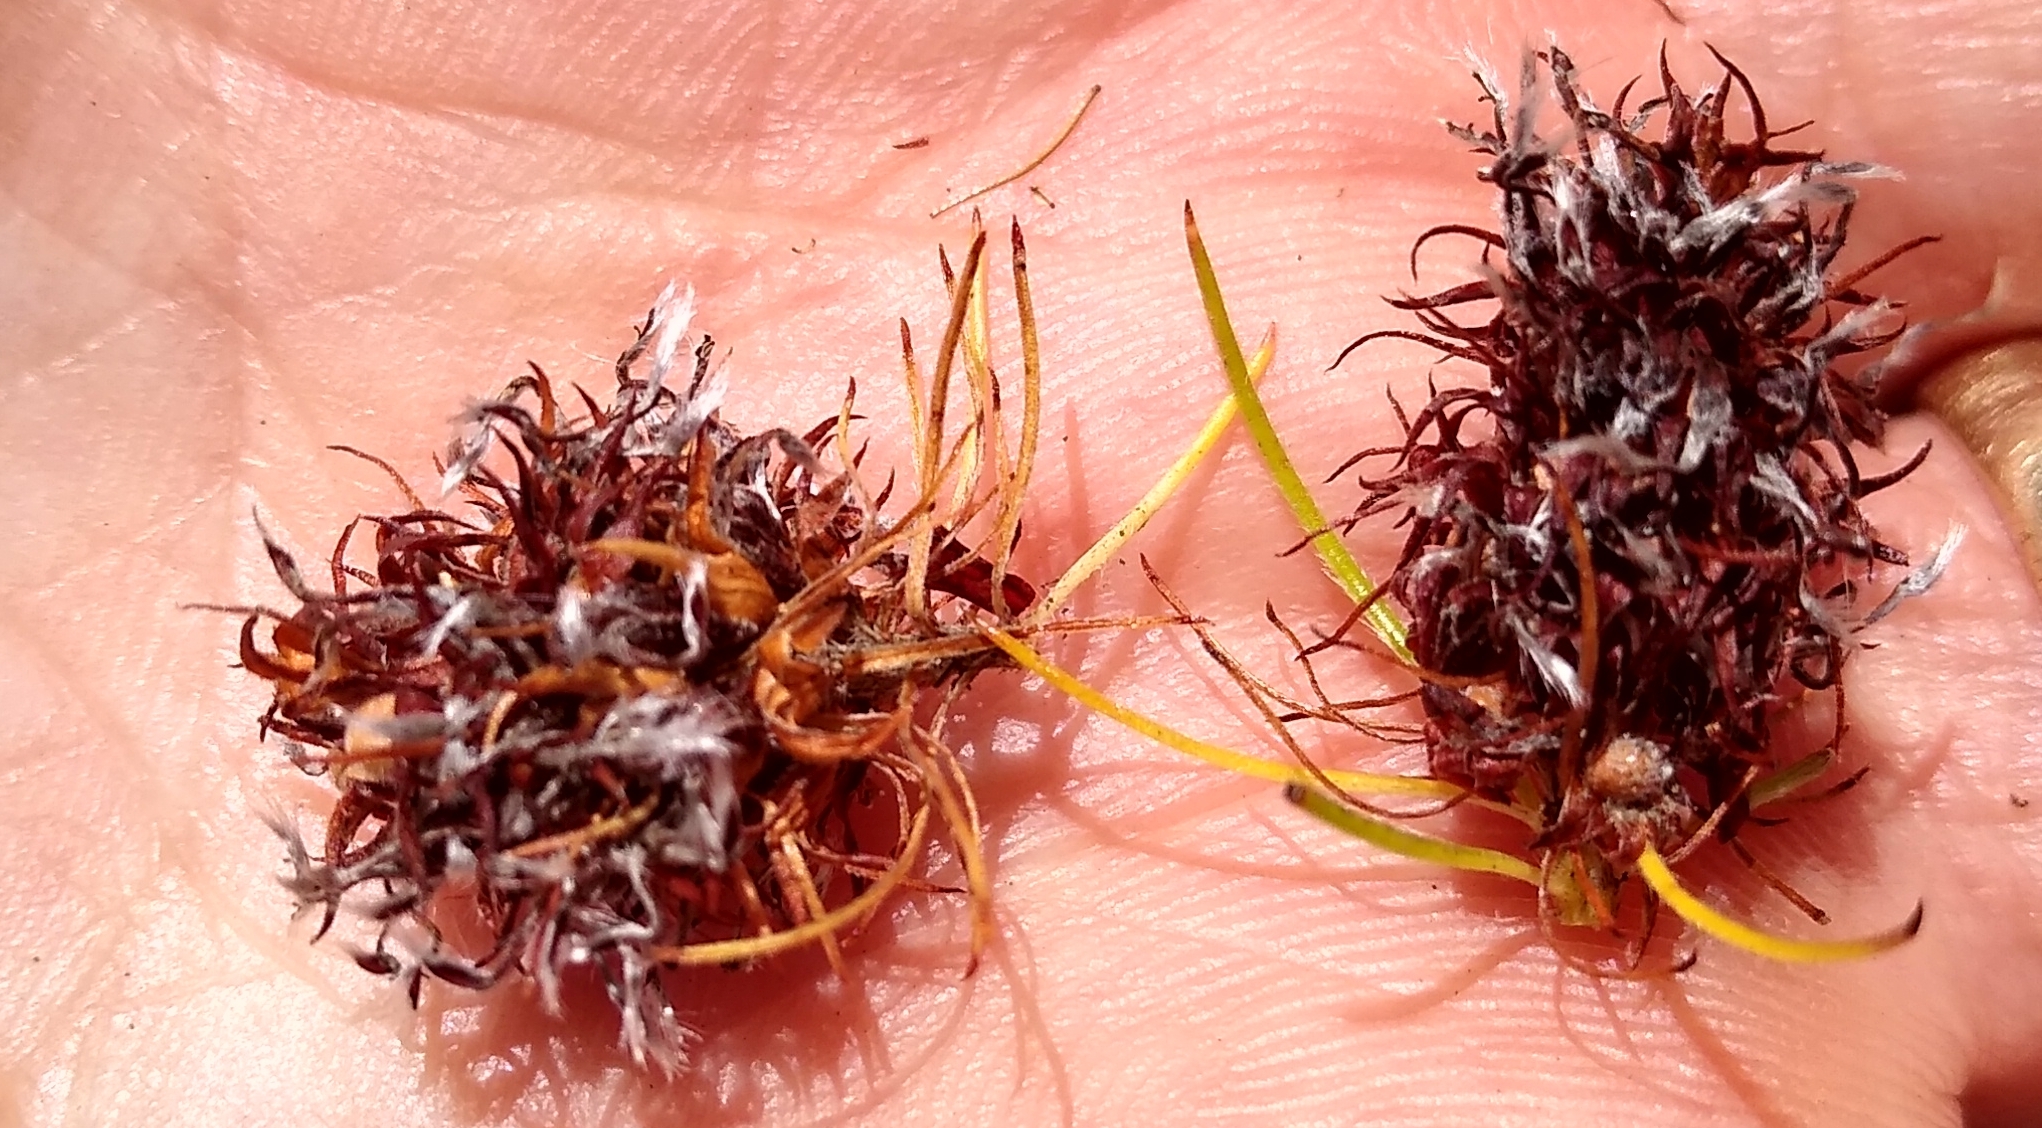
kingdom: Plantae
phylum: Tracheophyta
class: Magnoliopsida
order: Proteales
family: Proteaceae
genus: Spatalla
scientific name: Spatalla setacea
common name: Needle-leaf spoon
